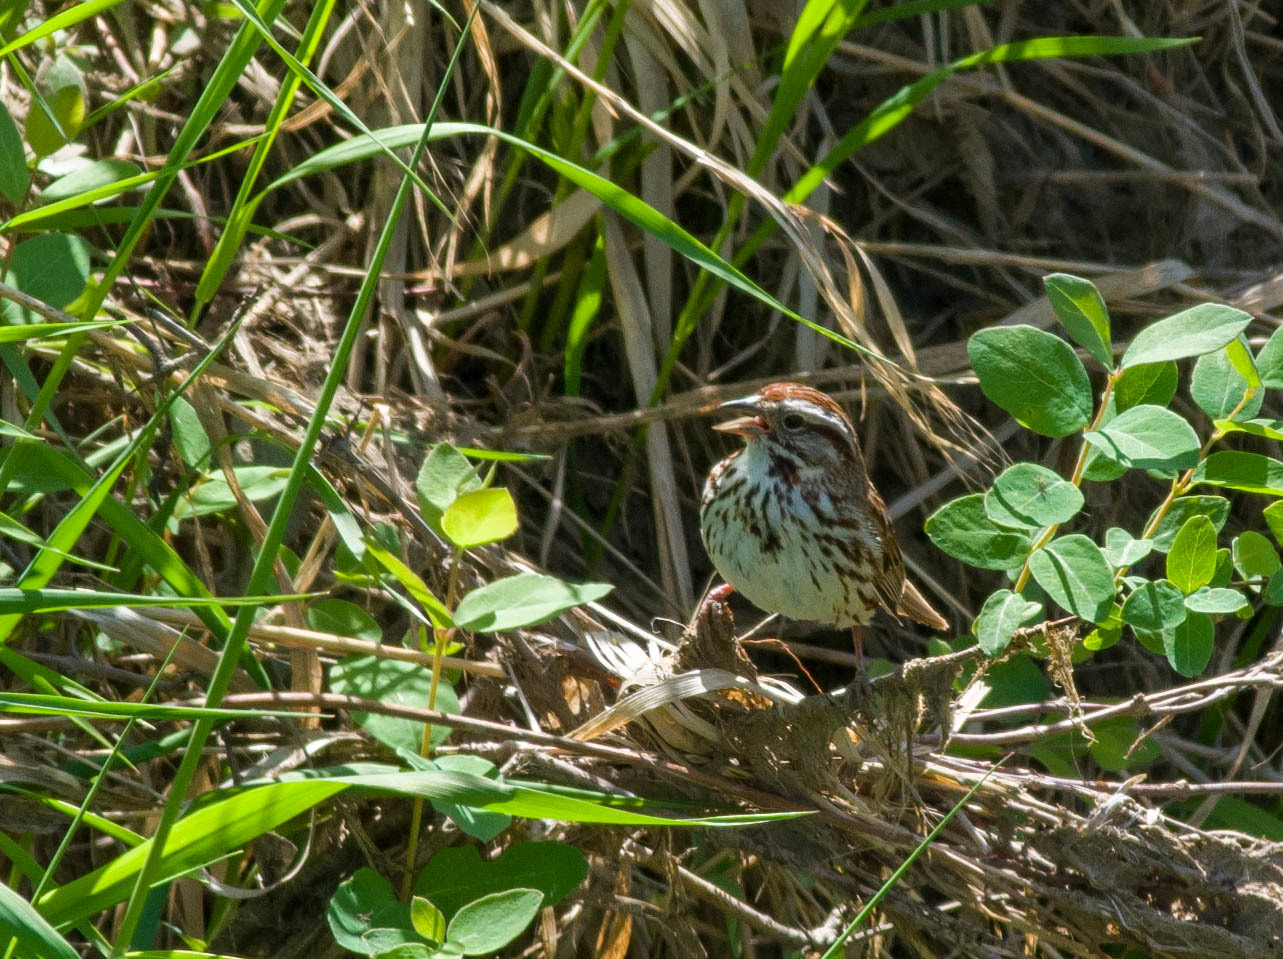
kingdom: Animalia
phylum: Chordata
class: Aves
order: Passeriformes
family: Passerellidae
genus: Melospiza
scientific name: Melospiza melodia
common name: Song sparrow
